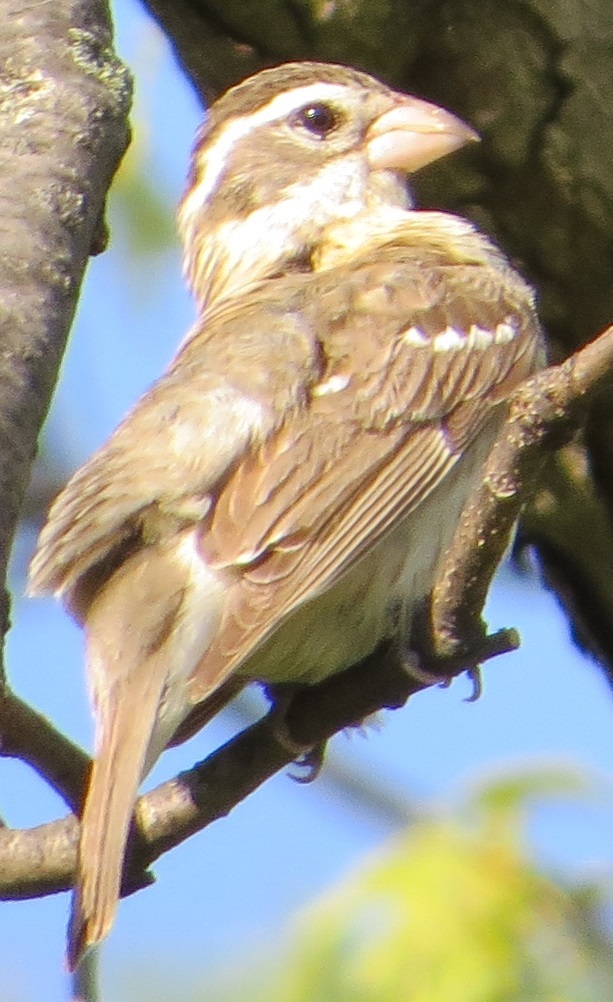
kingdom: Animalia
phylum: Chordata
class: Aves
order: Passeriformes
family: Cardinalidae
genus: Pheucticus
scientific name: Pheucticus ludovicianus
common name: Rose-breasted grosbeak
